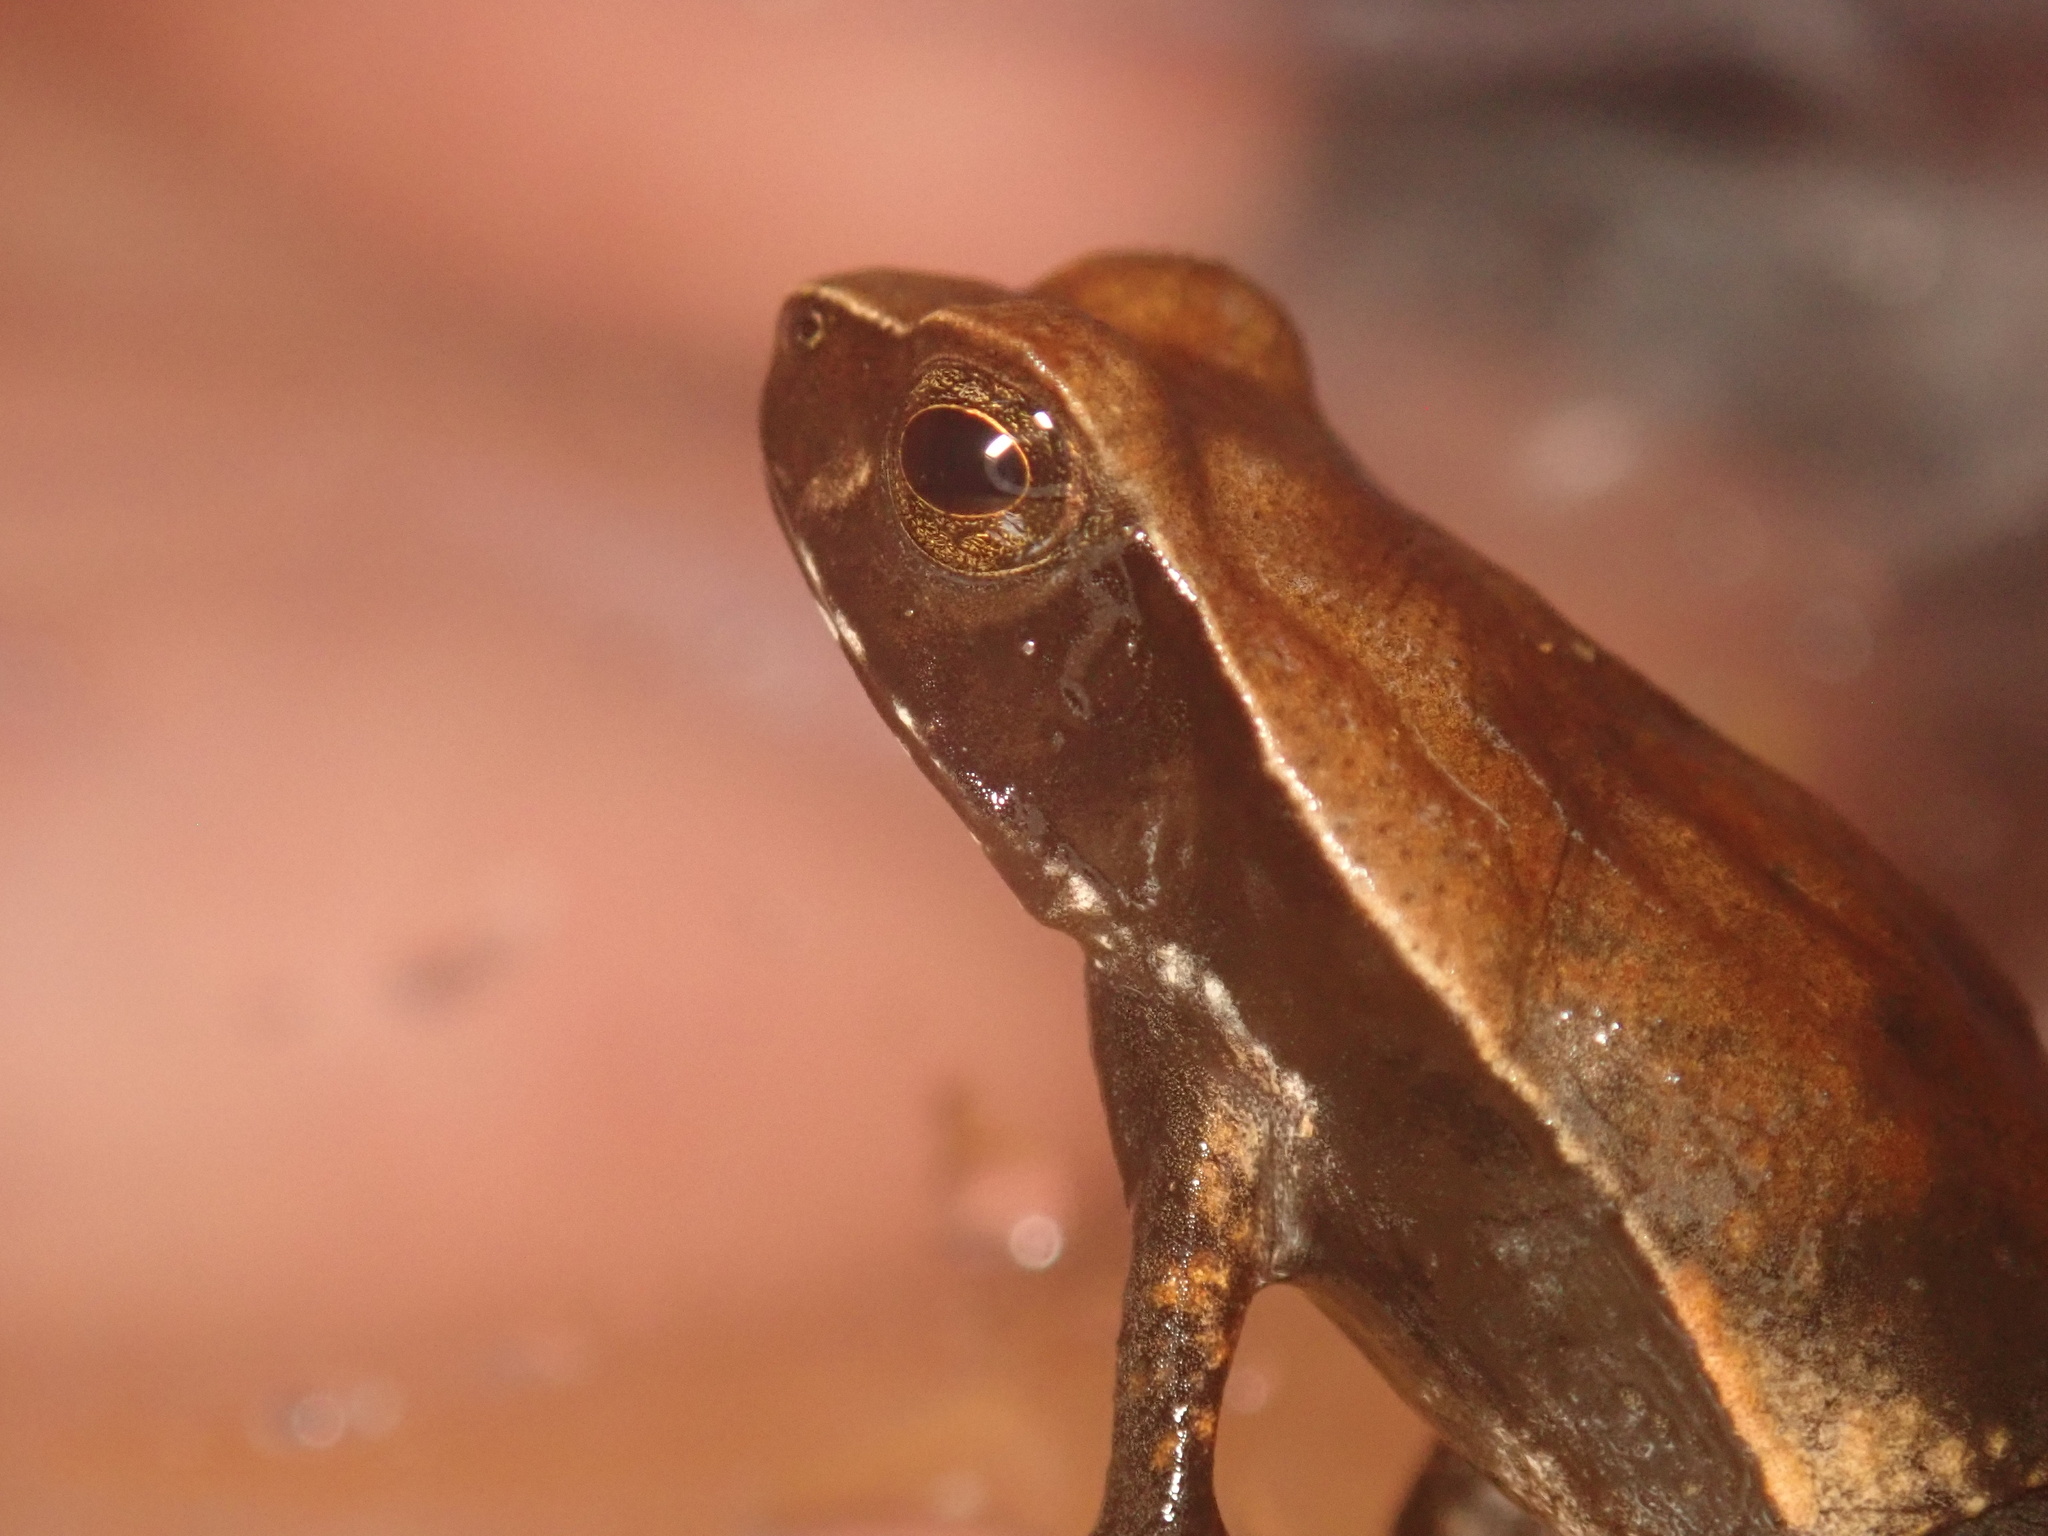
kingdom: Animalia
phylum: Chordata
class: Amphibia
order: Anura
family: Bufonidae
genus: Rhaebo
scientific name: Rhaebo haematiticus
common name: Truando toad
